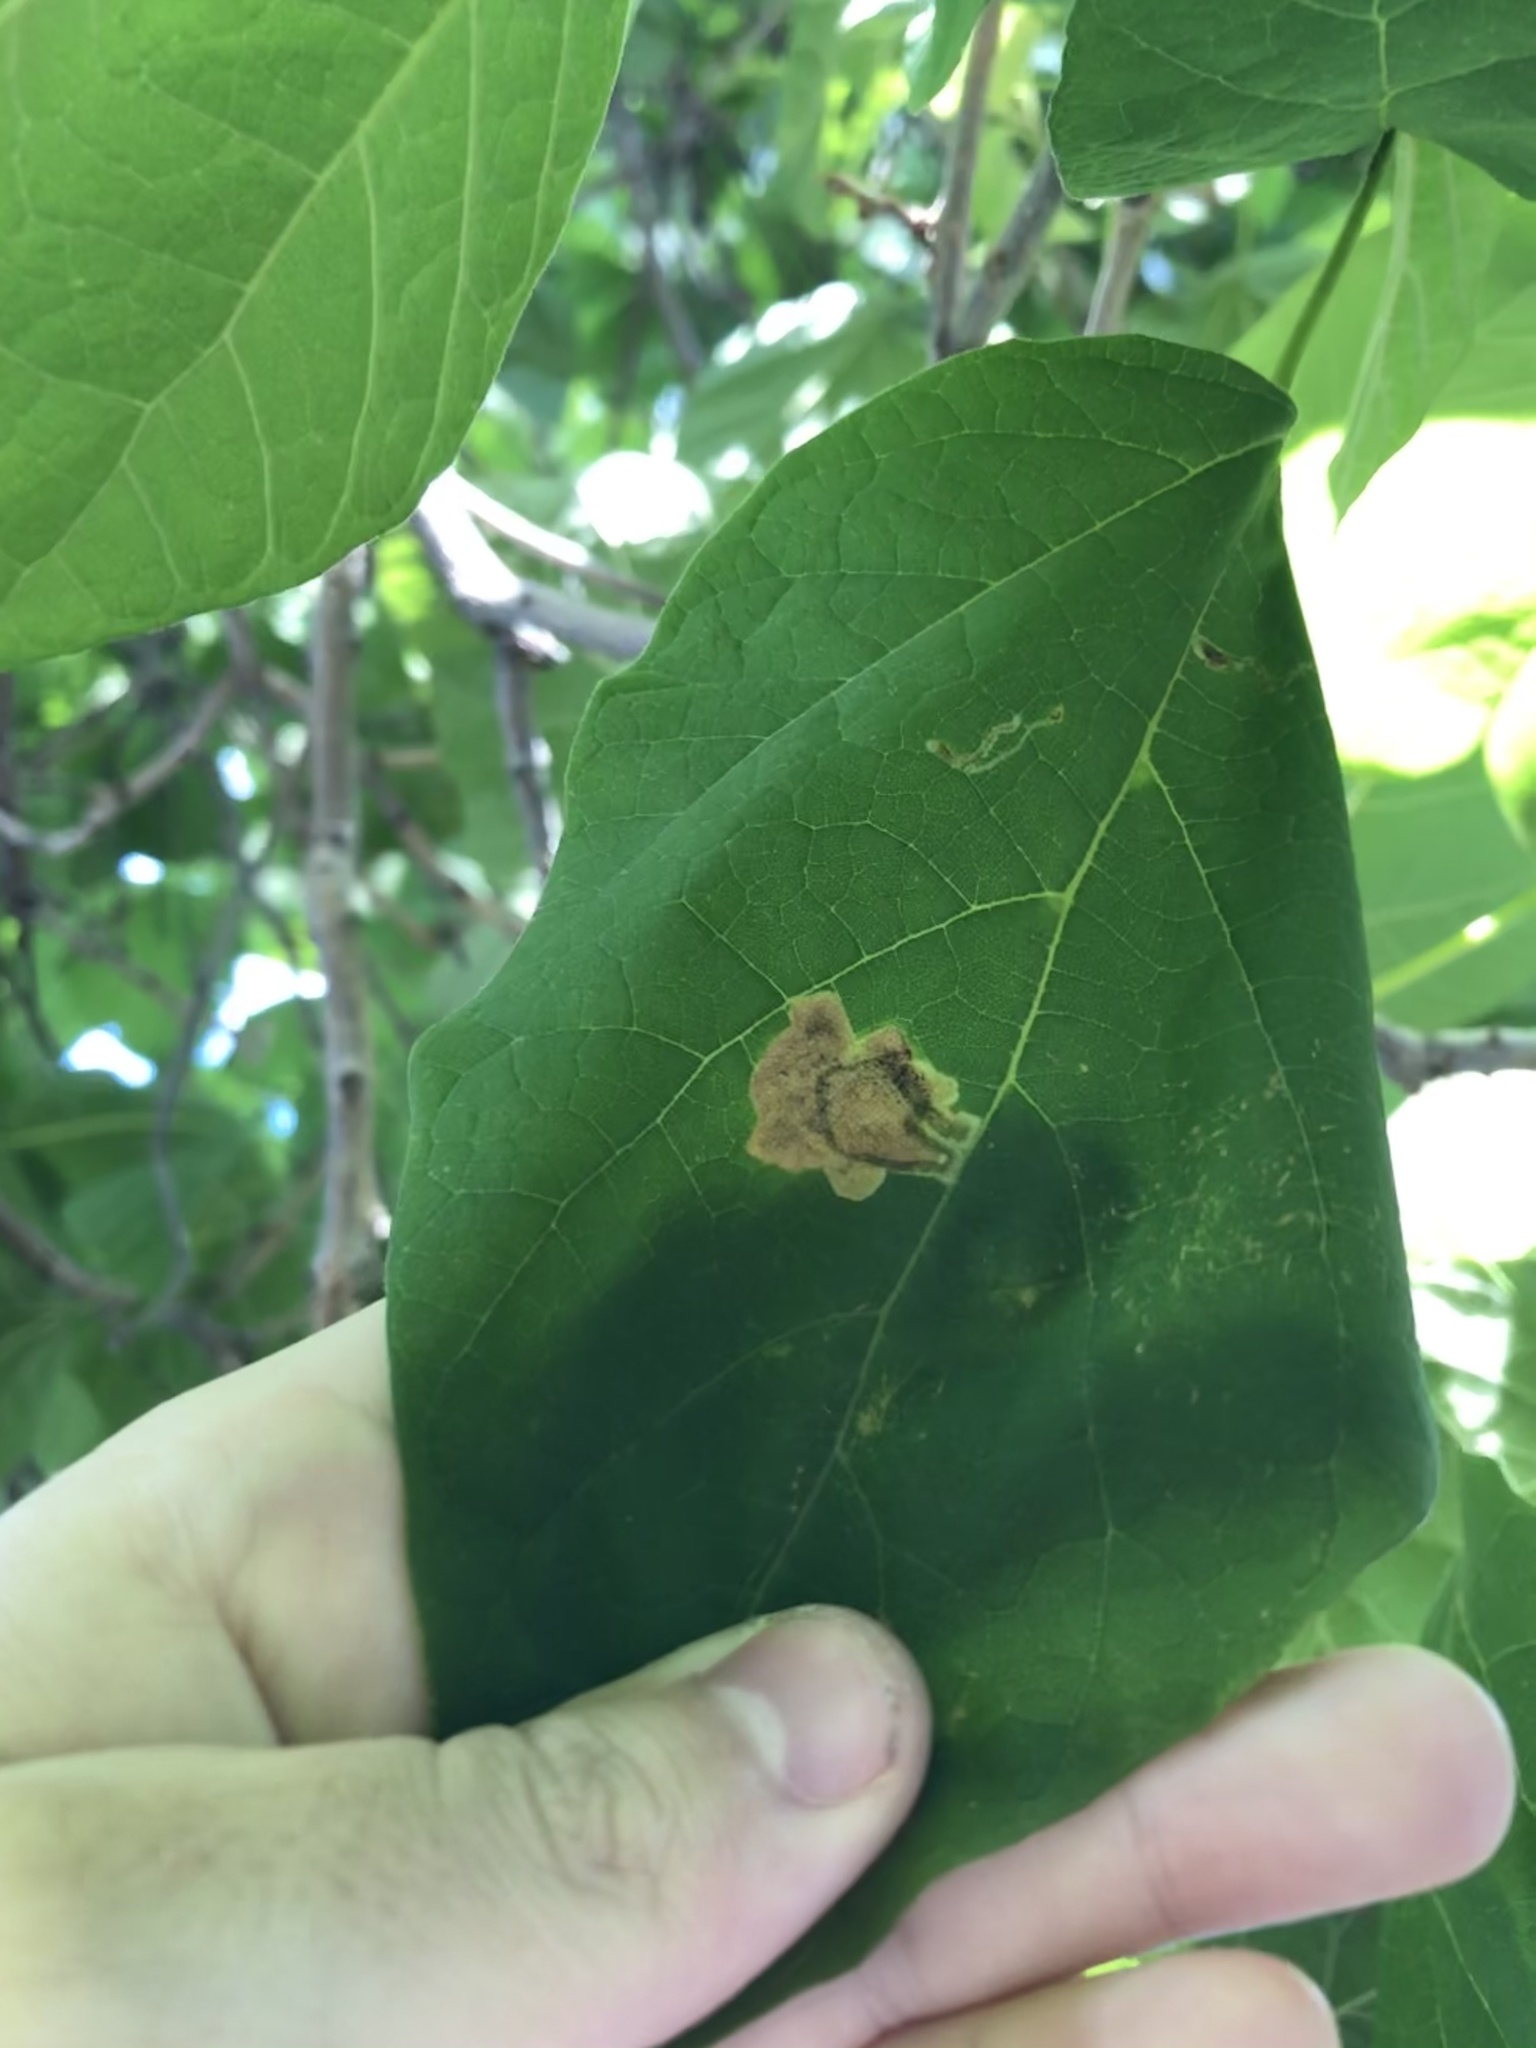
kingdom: Animalia
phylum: Arthropoda
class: Insecta
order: Diptera
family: Agromyzidae
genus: Amauromyza
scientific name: Amauromyza pleuralis
